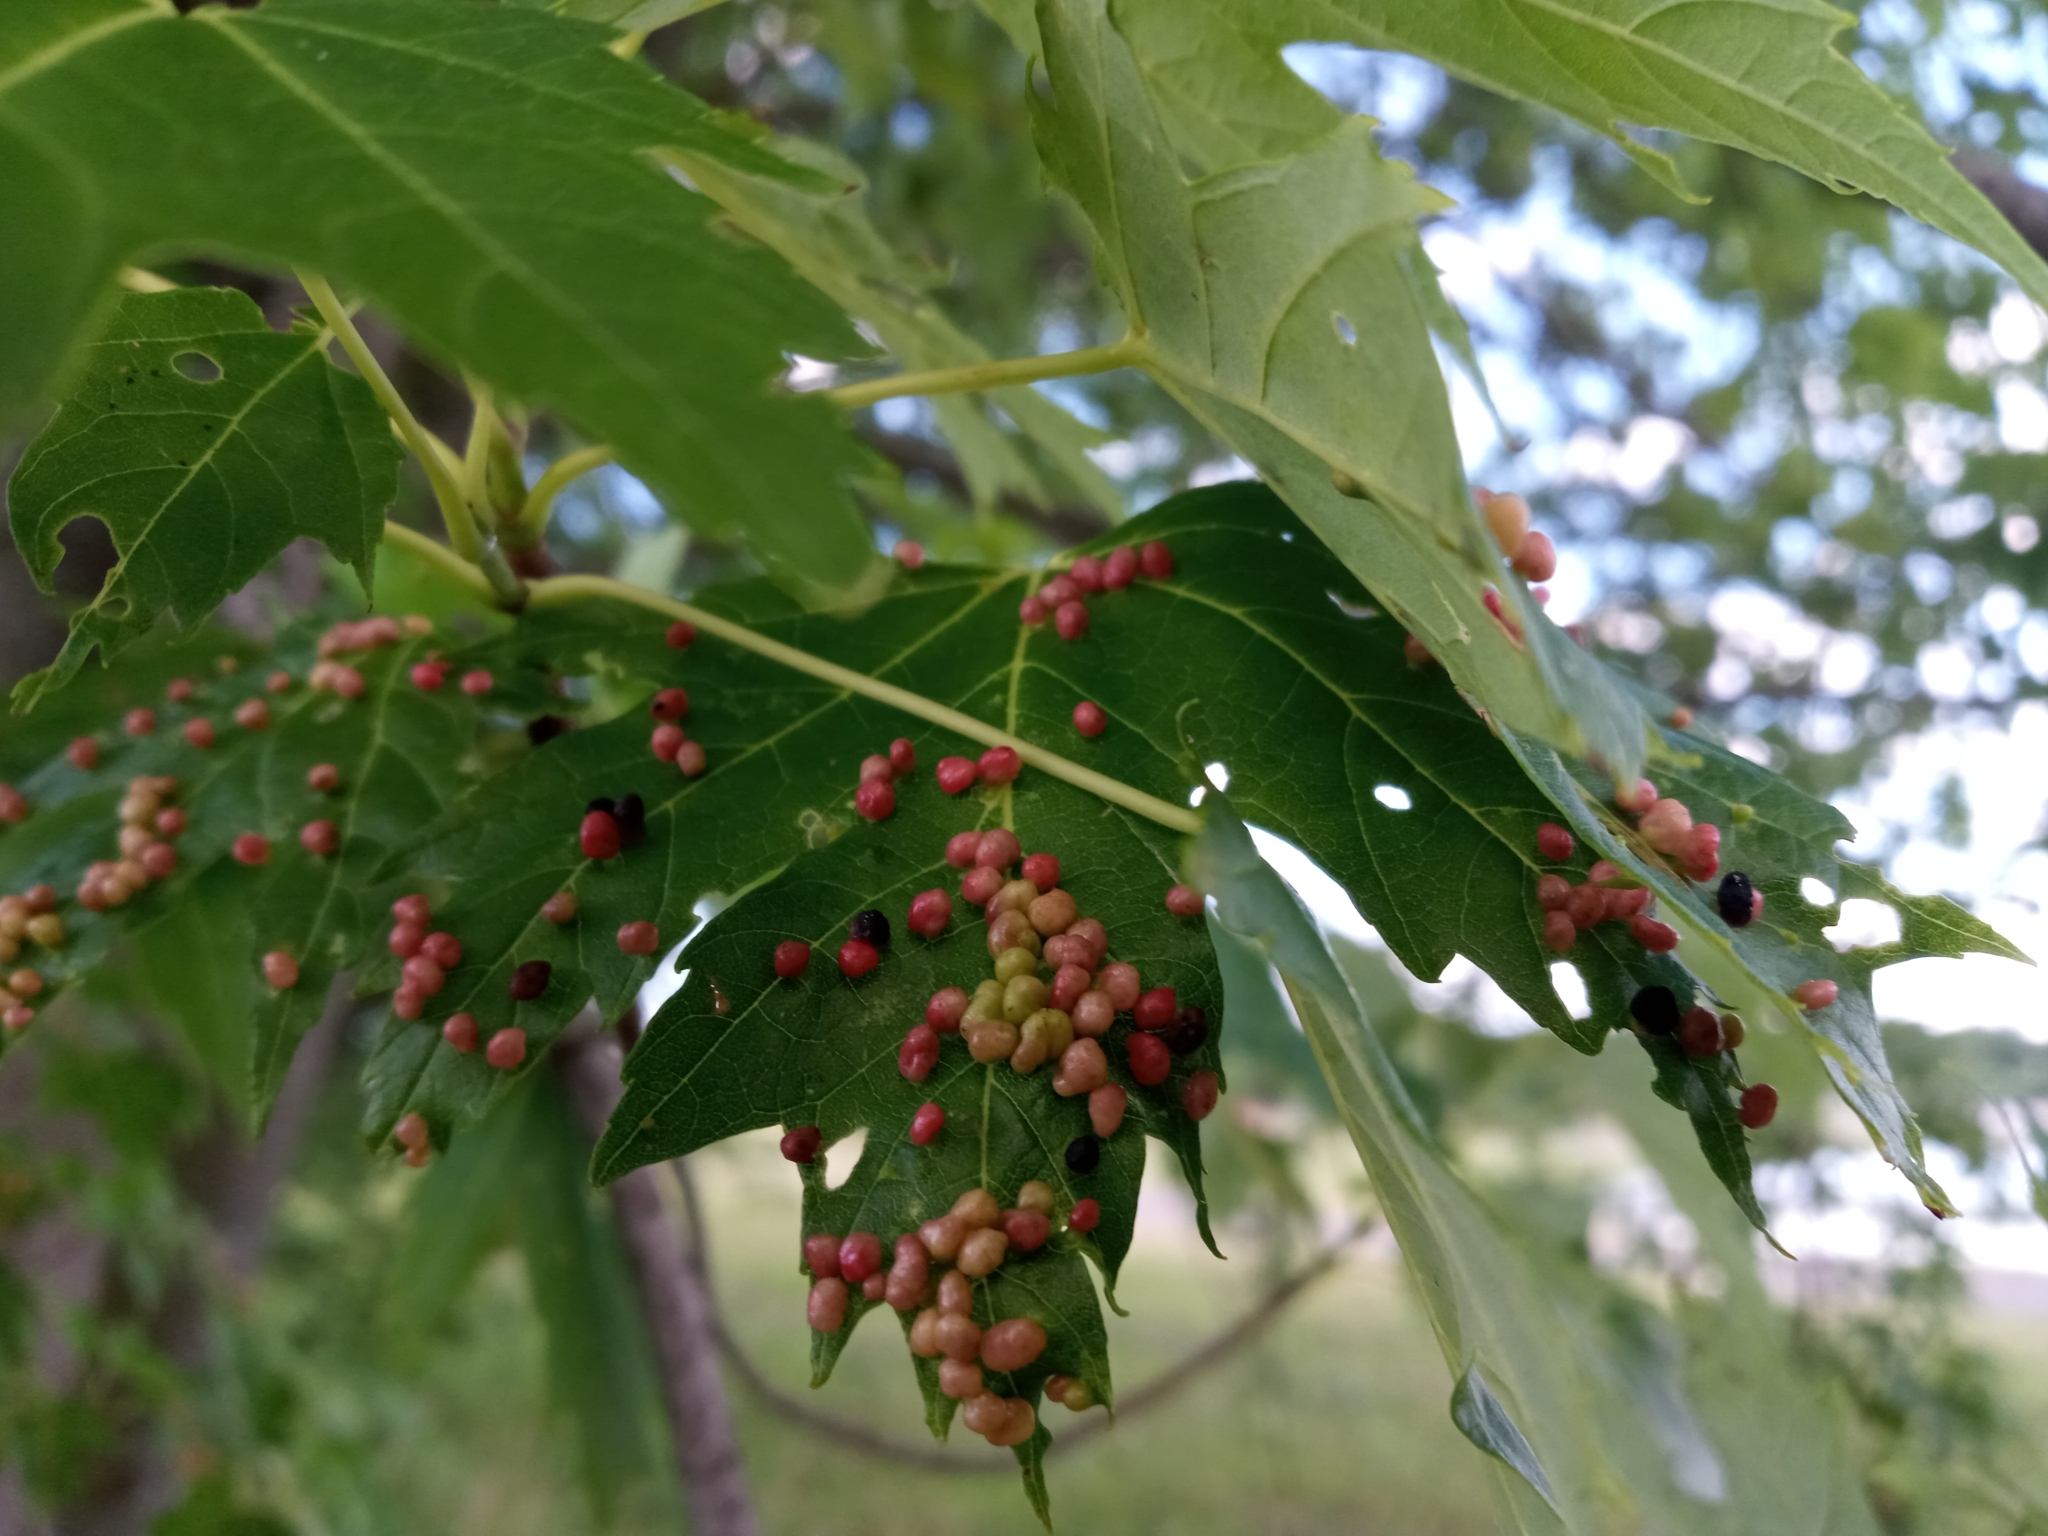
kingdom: Animalia
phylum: Arthropoda
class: Arachnida
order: Trombidiformes
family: Eriophyidae
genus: Vasates
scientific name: Vasates quadripedes
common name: Maple bladder gall mite
